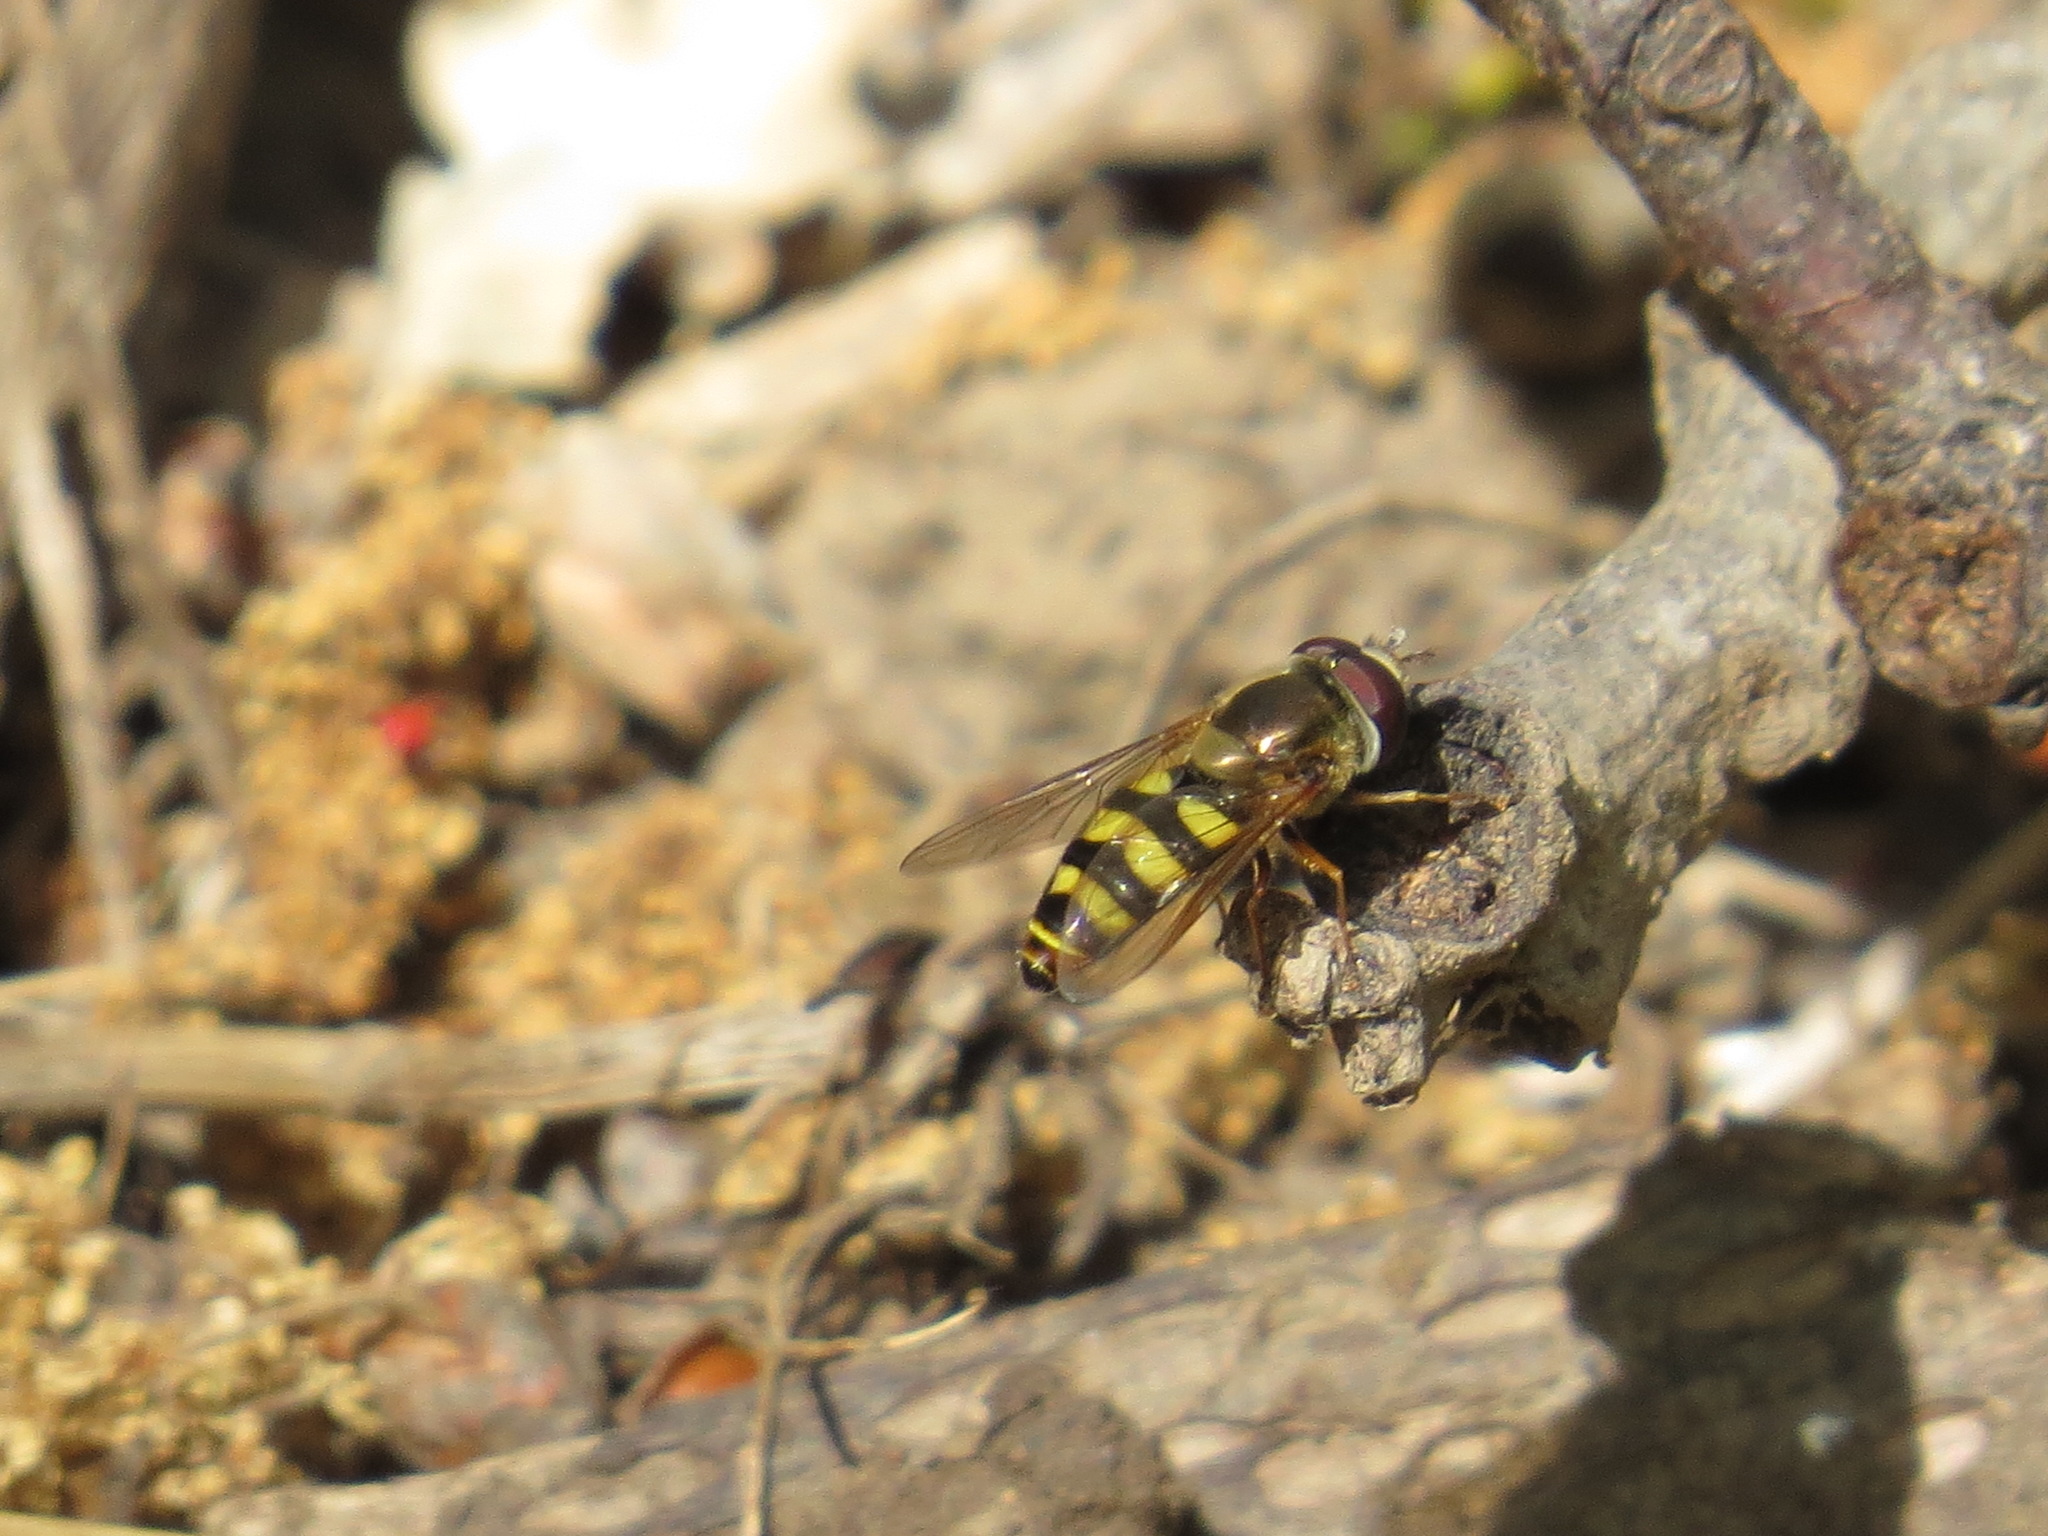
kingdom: Animalia
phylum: Arthropoda
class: Insecta
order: Diptera
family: Syrphidae
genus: Eupeodes
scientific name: Eupeodes fumipennis
